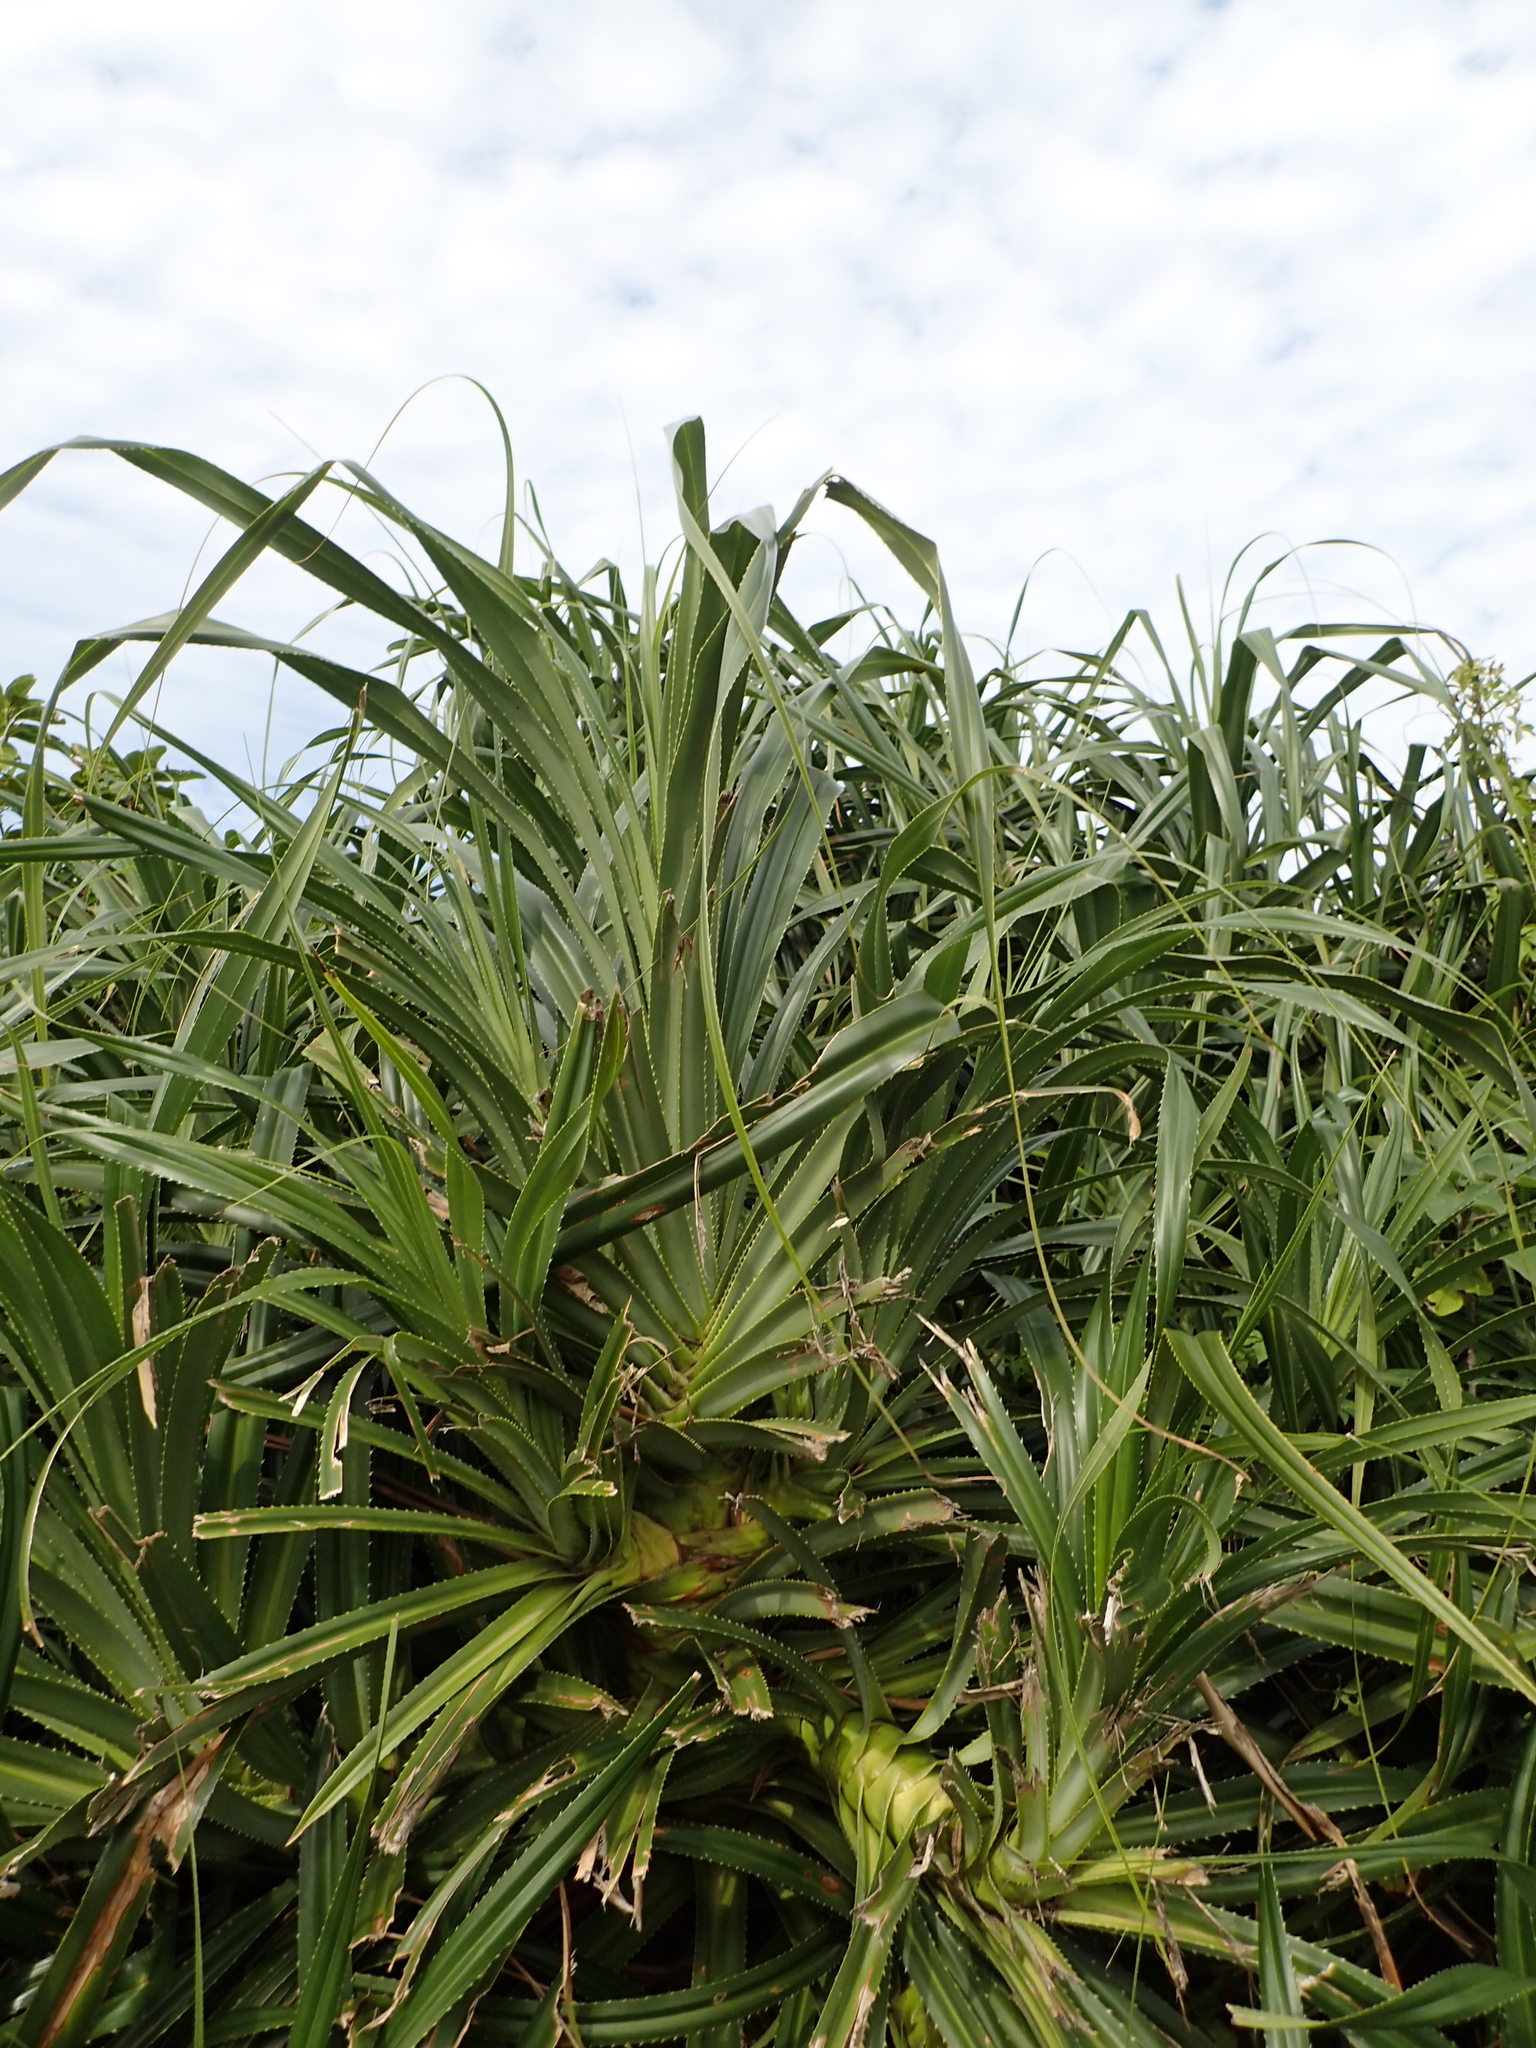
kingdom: Plantae
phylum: Tracheophyta
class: Liliopsida
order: Pandanales
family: Pandanaceae
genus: Pandanus
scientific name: Pandanus odorifer
